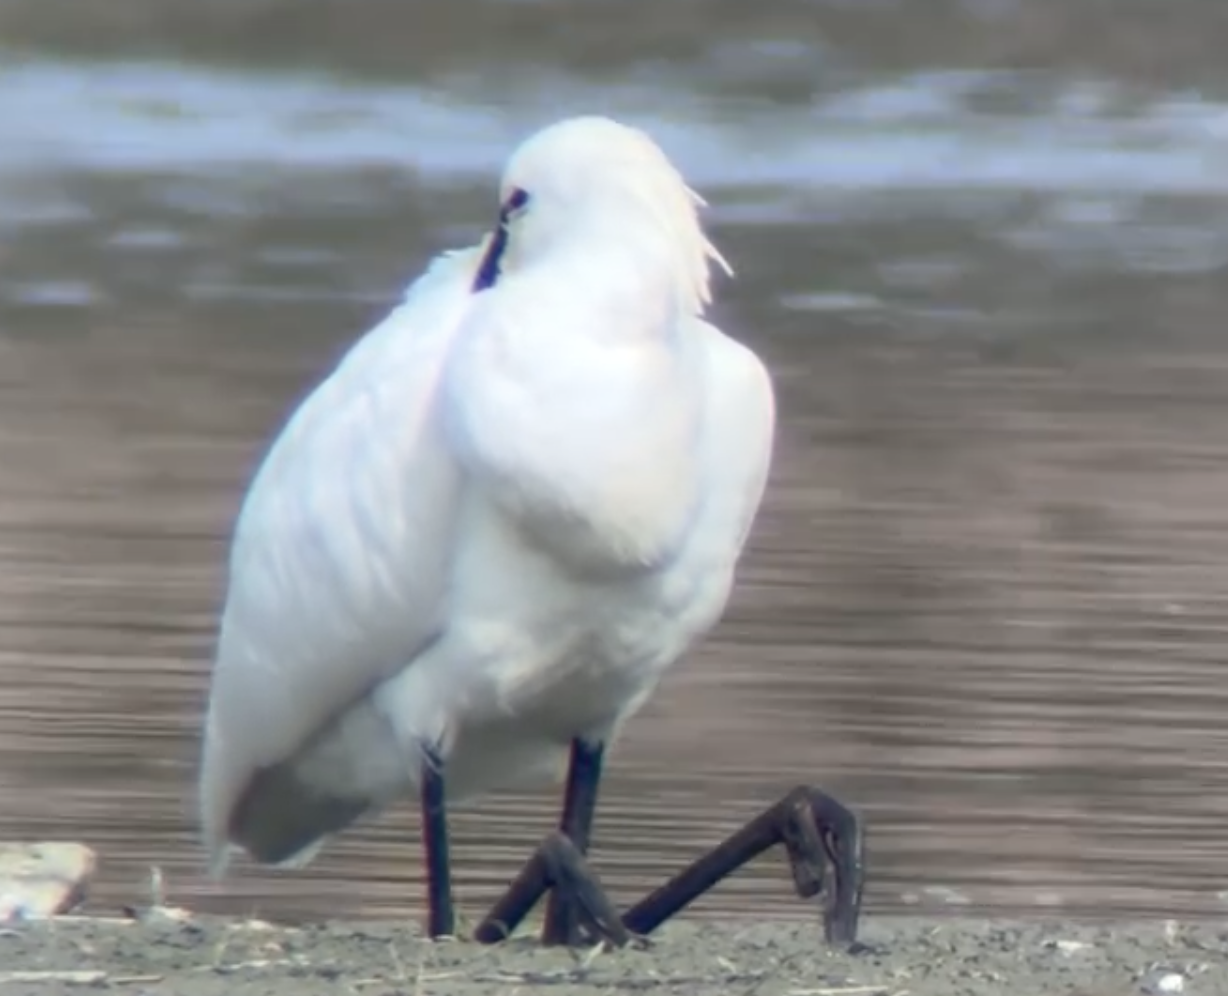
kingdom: Animalia
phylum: Chordata
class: Aves
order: Pelecaniformes
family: Threskiornithidae
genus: Platalea
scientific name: Platalea leucorodia
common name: Eurasian spoonbill
